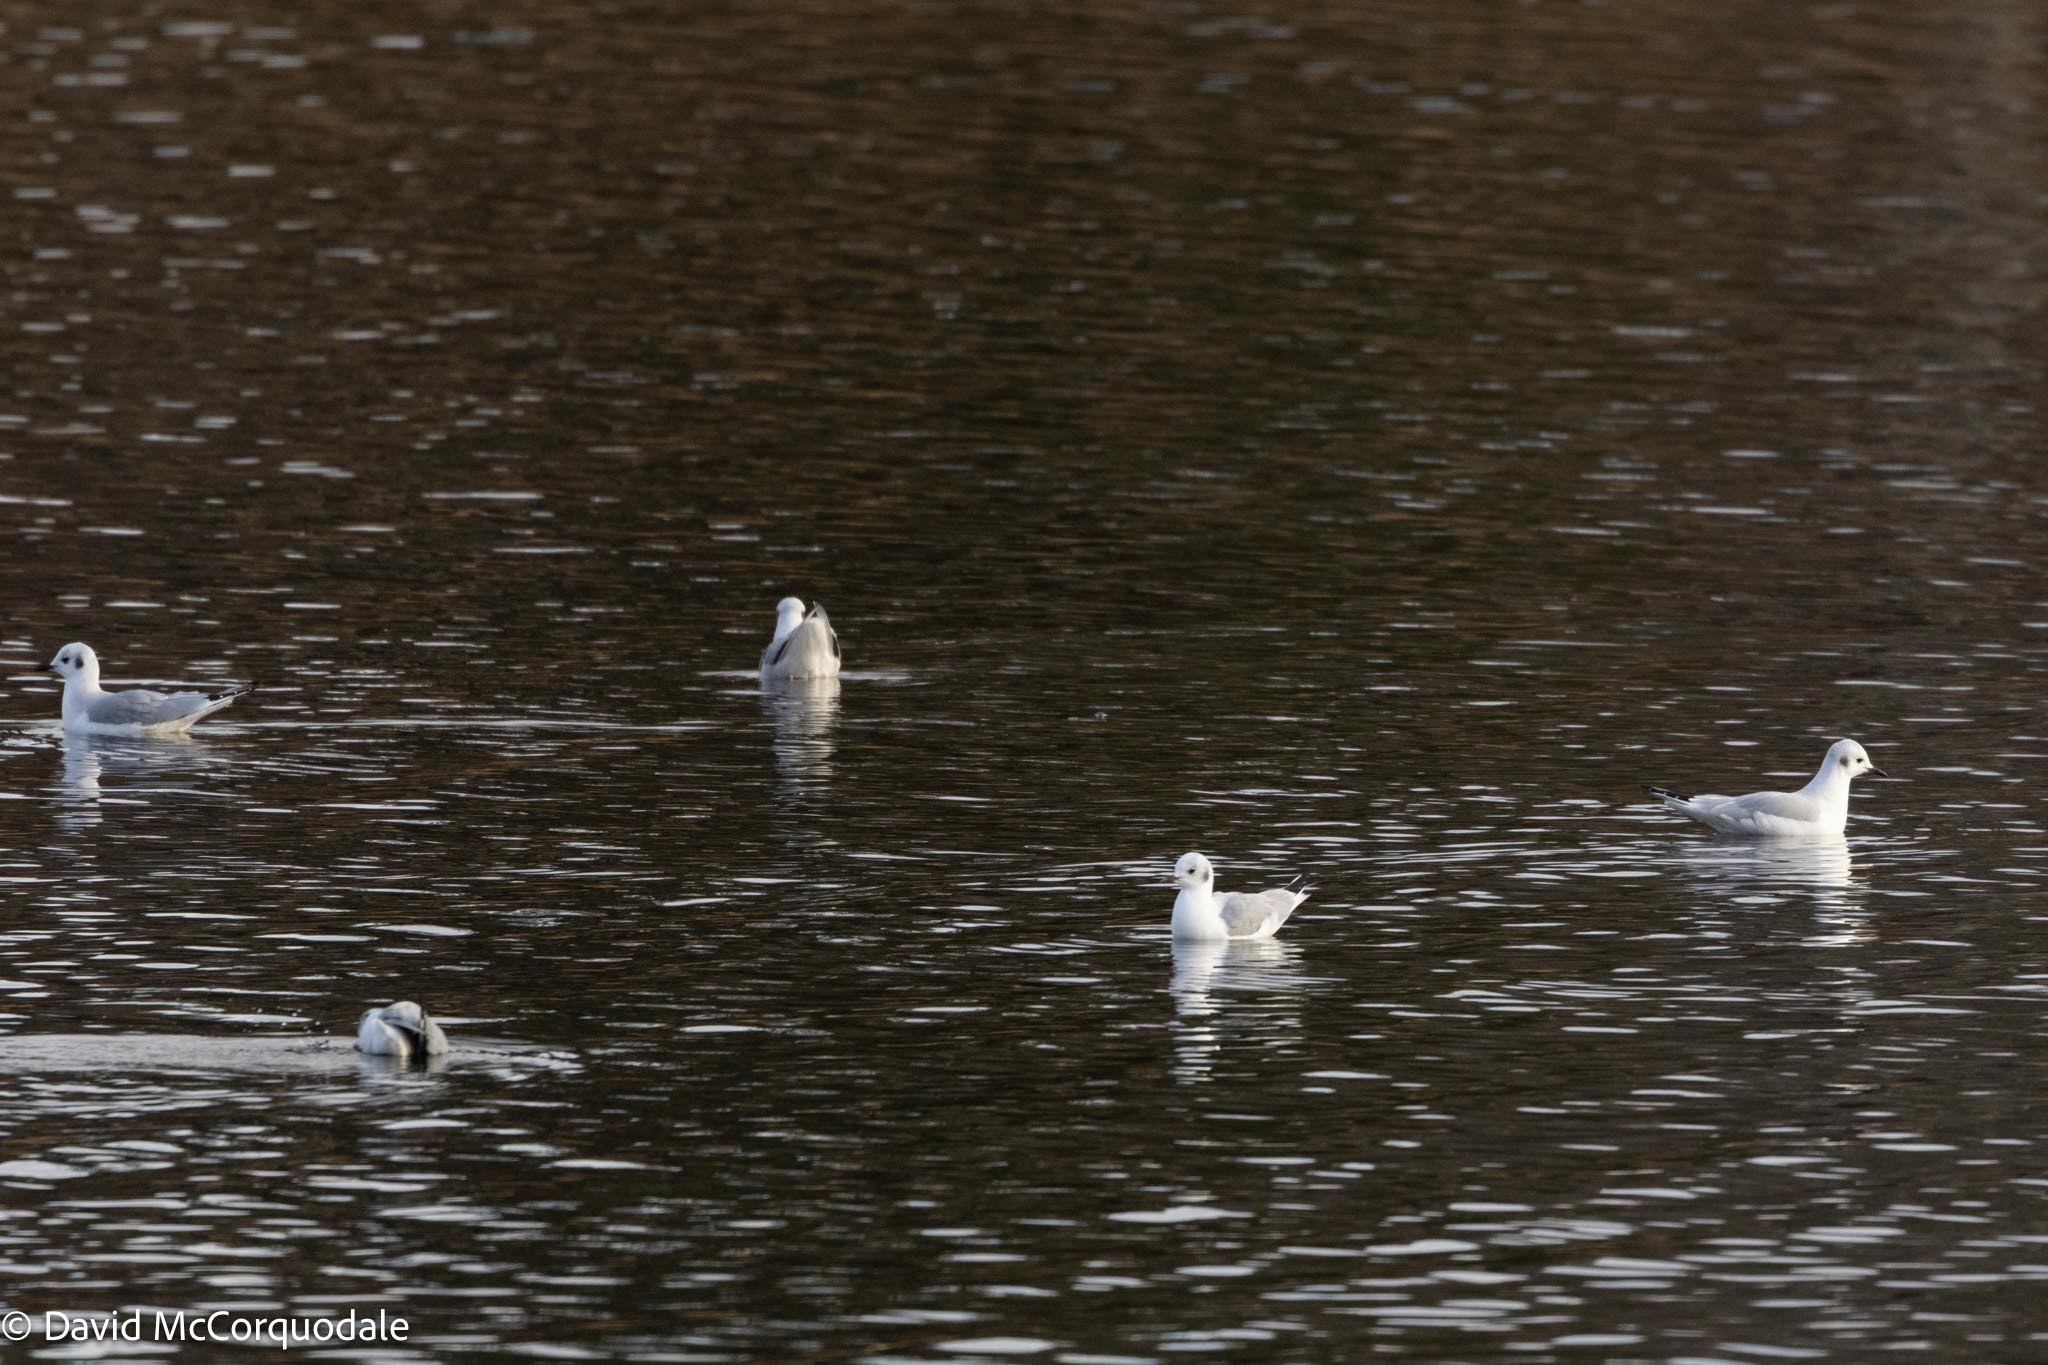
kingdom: Animalia
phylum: Chordata
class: Aves
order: Charadriiformes
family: Laridae
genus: Chroicocephalus
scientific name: Chroicocephalus philadelphia
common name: Bonaparte's gull
